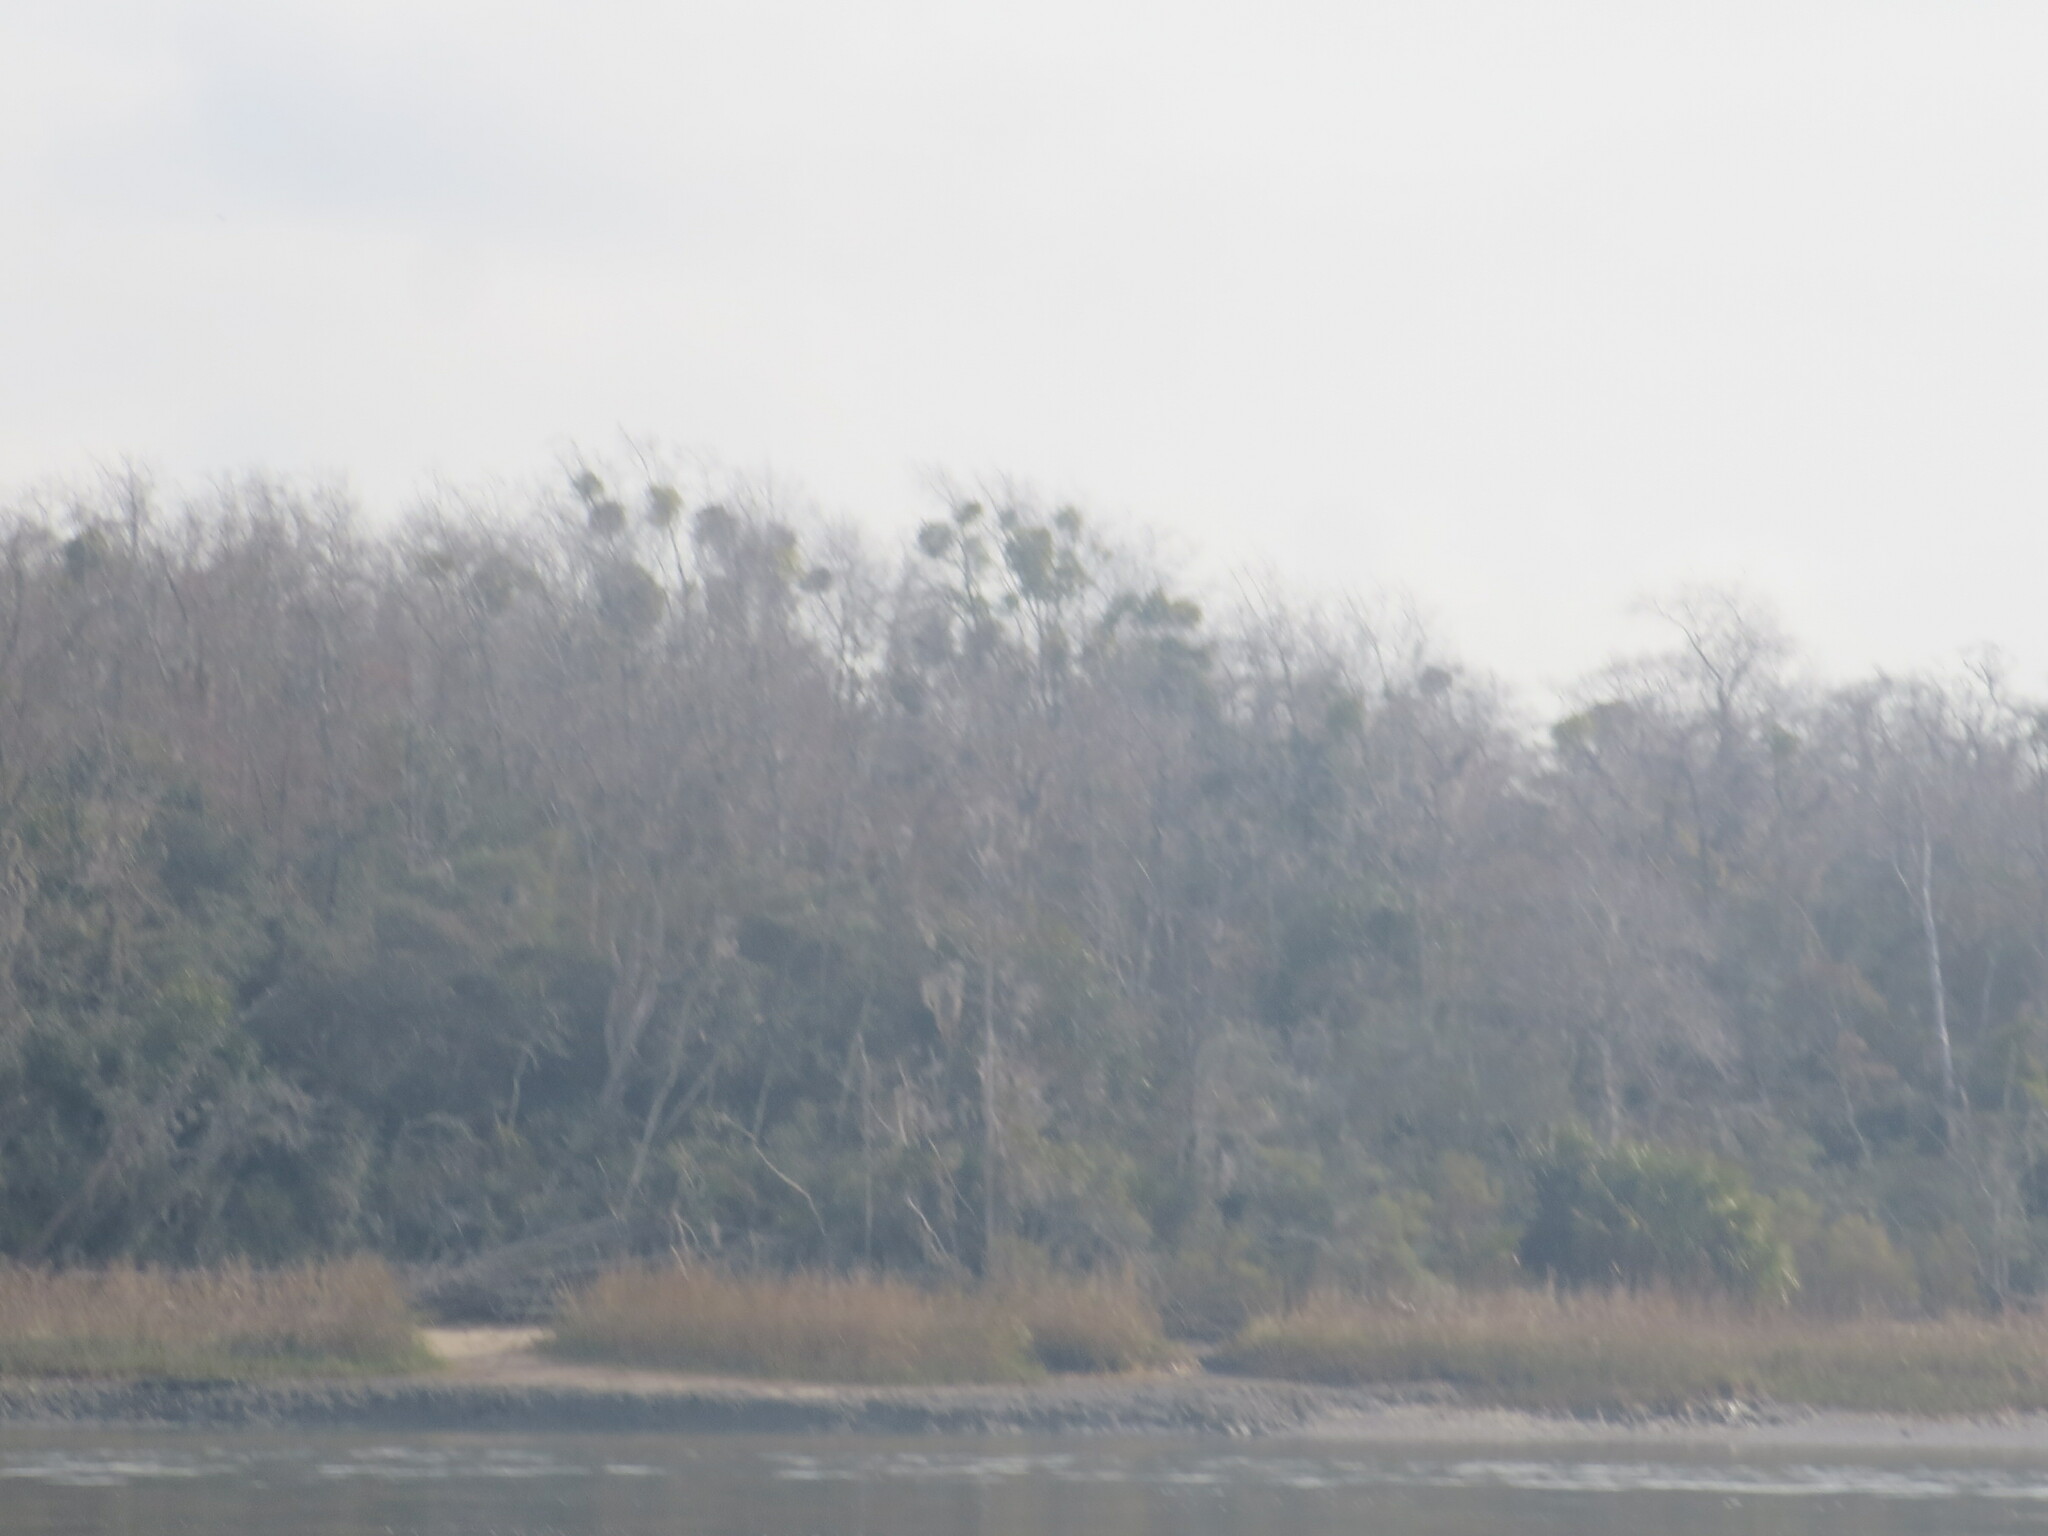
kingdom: Plantae
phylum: Tracheophyta
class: Magnoliopsida
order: Santalales
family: Viscaceae
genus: Phoradendron
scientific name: Phoradendron leucarpum
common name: Pacific mistletoe
